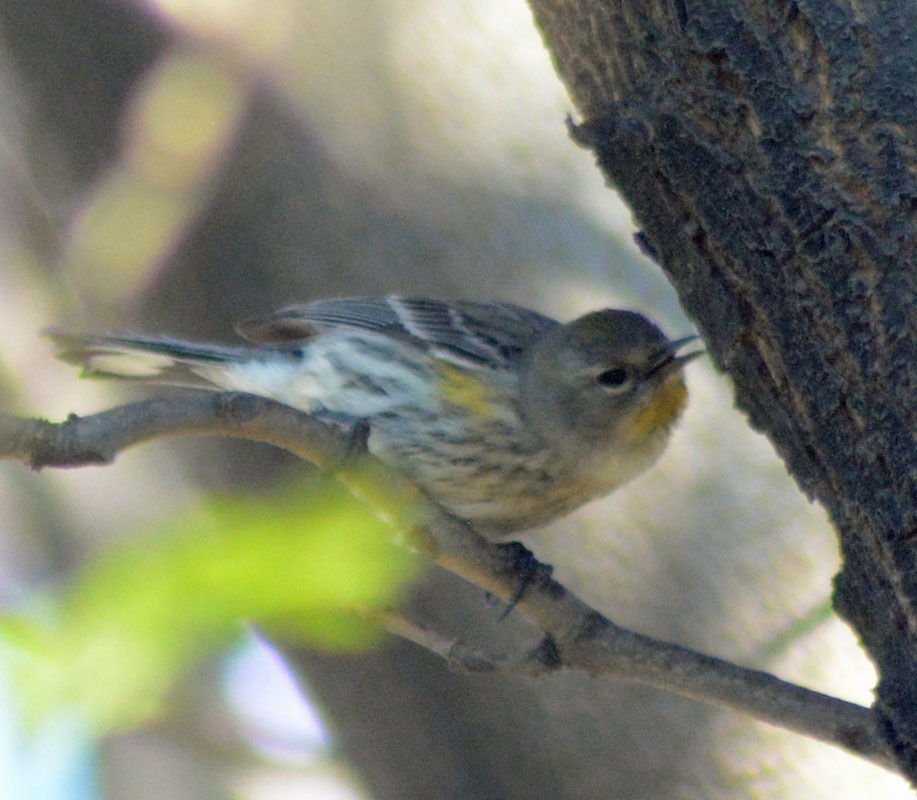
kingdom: Animalia
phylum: Chordata
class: Aves
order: Passeriformes
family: Parulidae
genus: Setophaga
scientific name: Setophaga coronata
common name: Myrtle warbler
